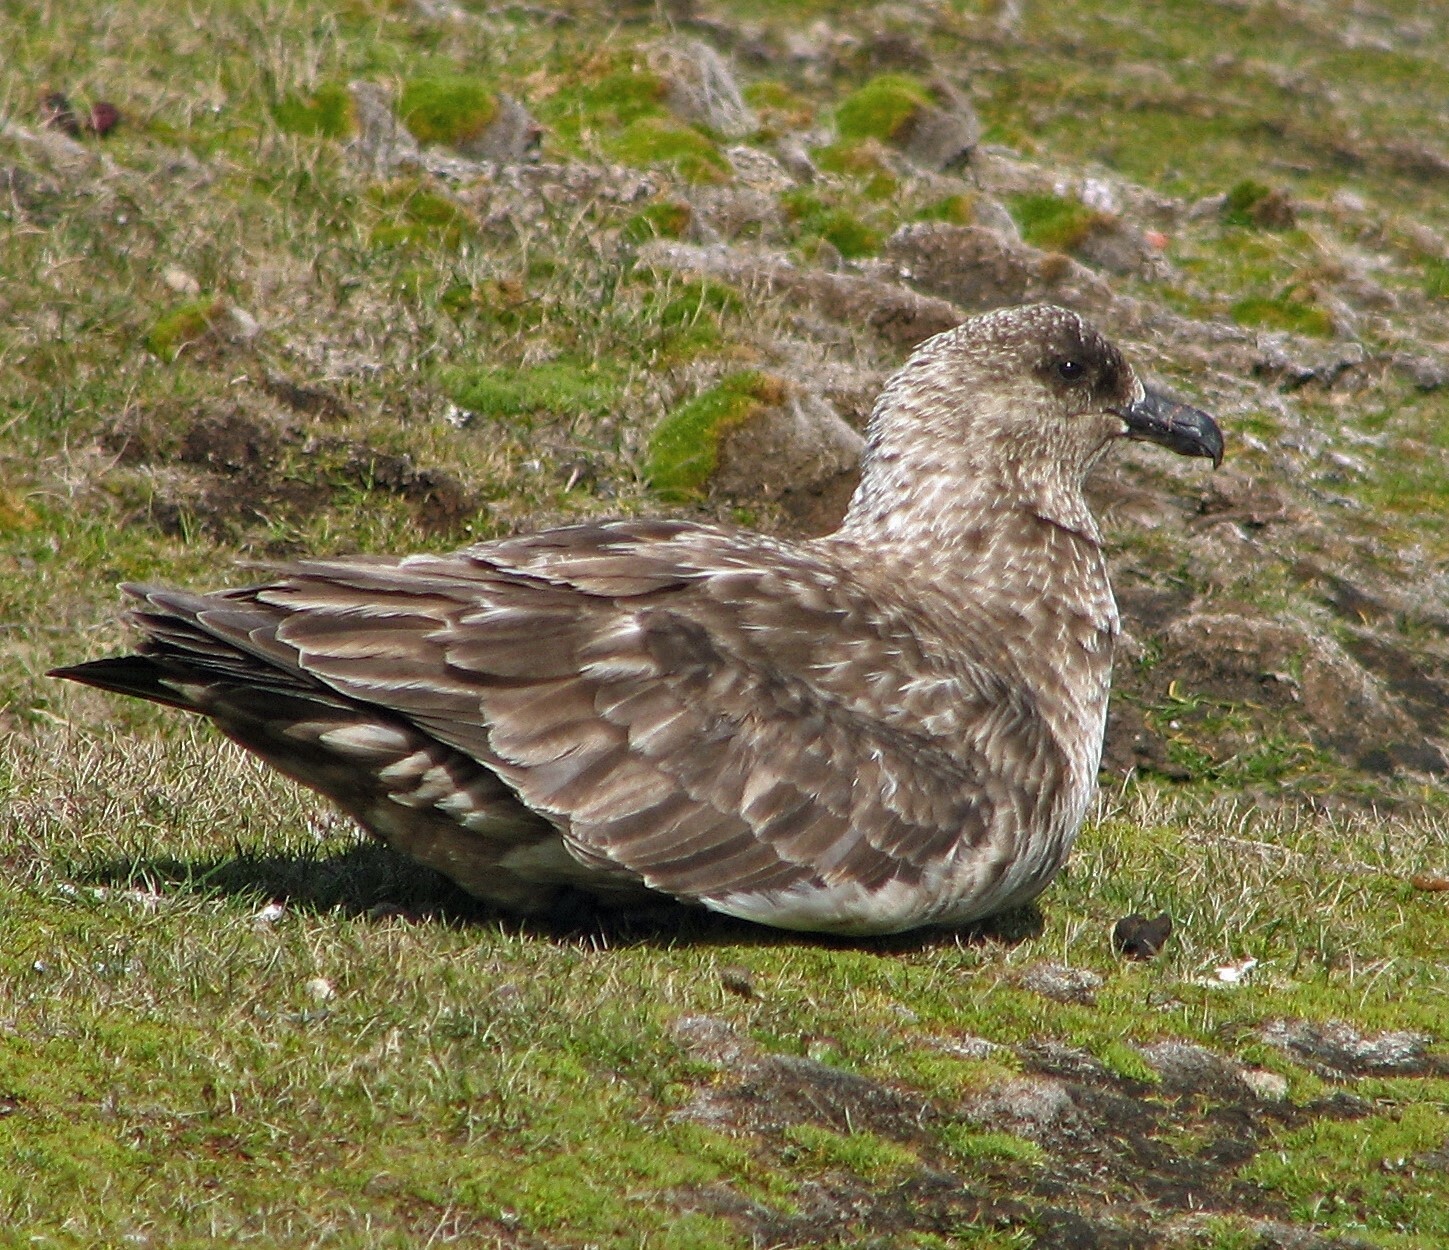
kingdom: Animalia
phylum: Chordata
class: Aves
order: Charadriiformes
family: Stercorariidae
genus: Stercorarius
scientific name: Stercorarius antarcticus
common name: Brown skua
